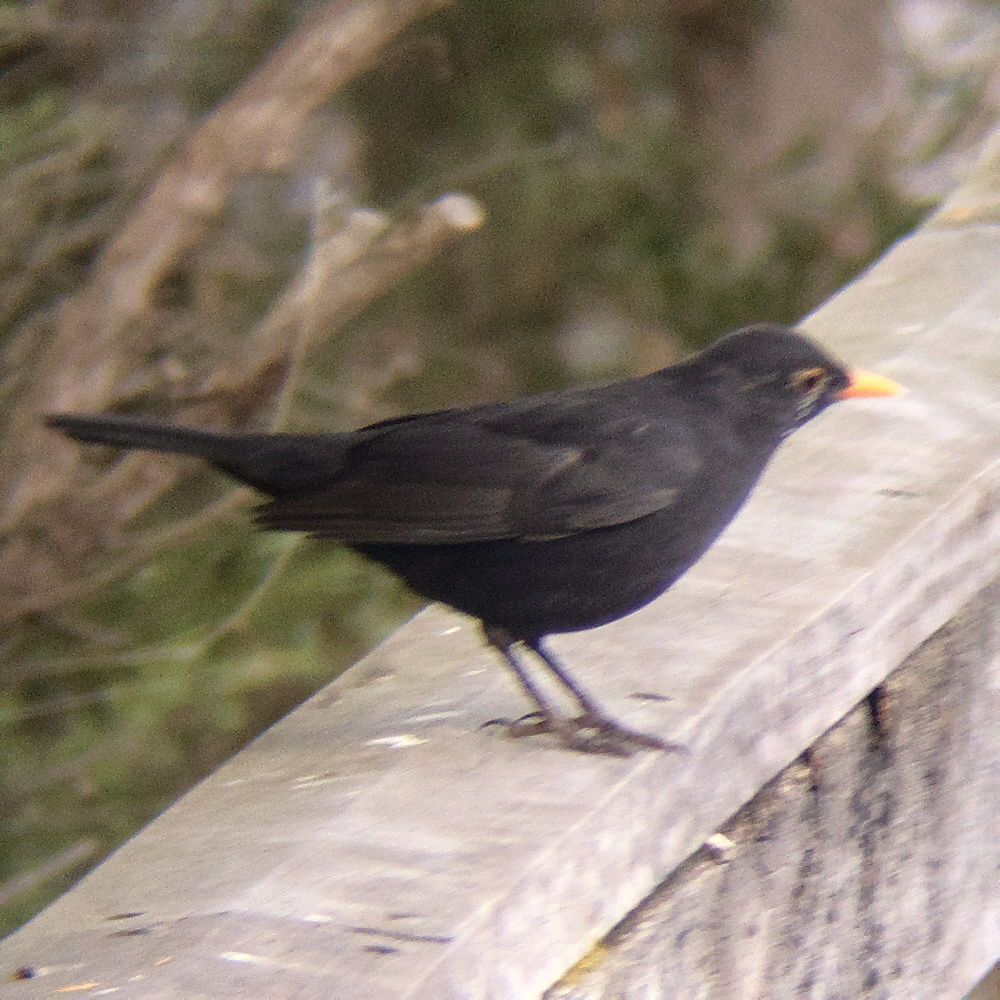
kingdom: Animalia
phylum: Chordata
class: Aves
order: Passeriformes
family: Turdidae
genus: Turdus
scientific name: Turdus merula
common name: Common blackbird
